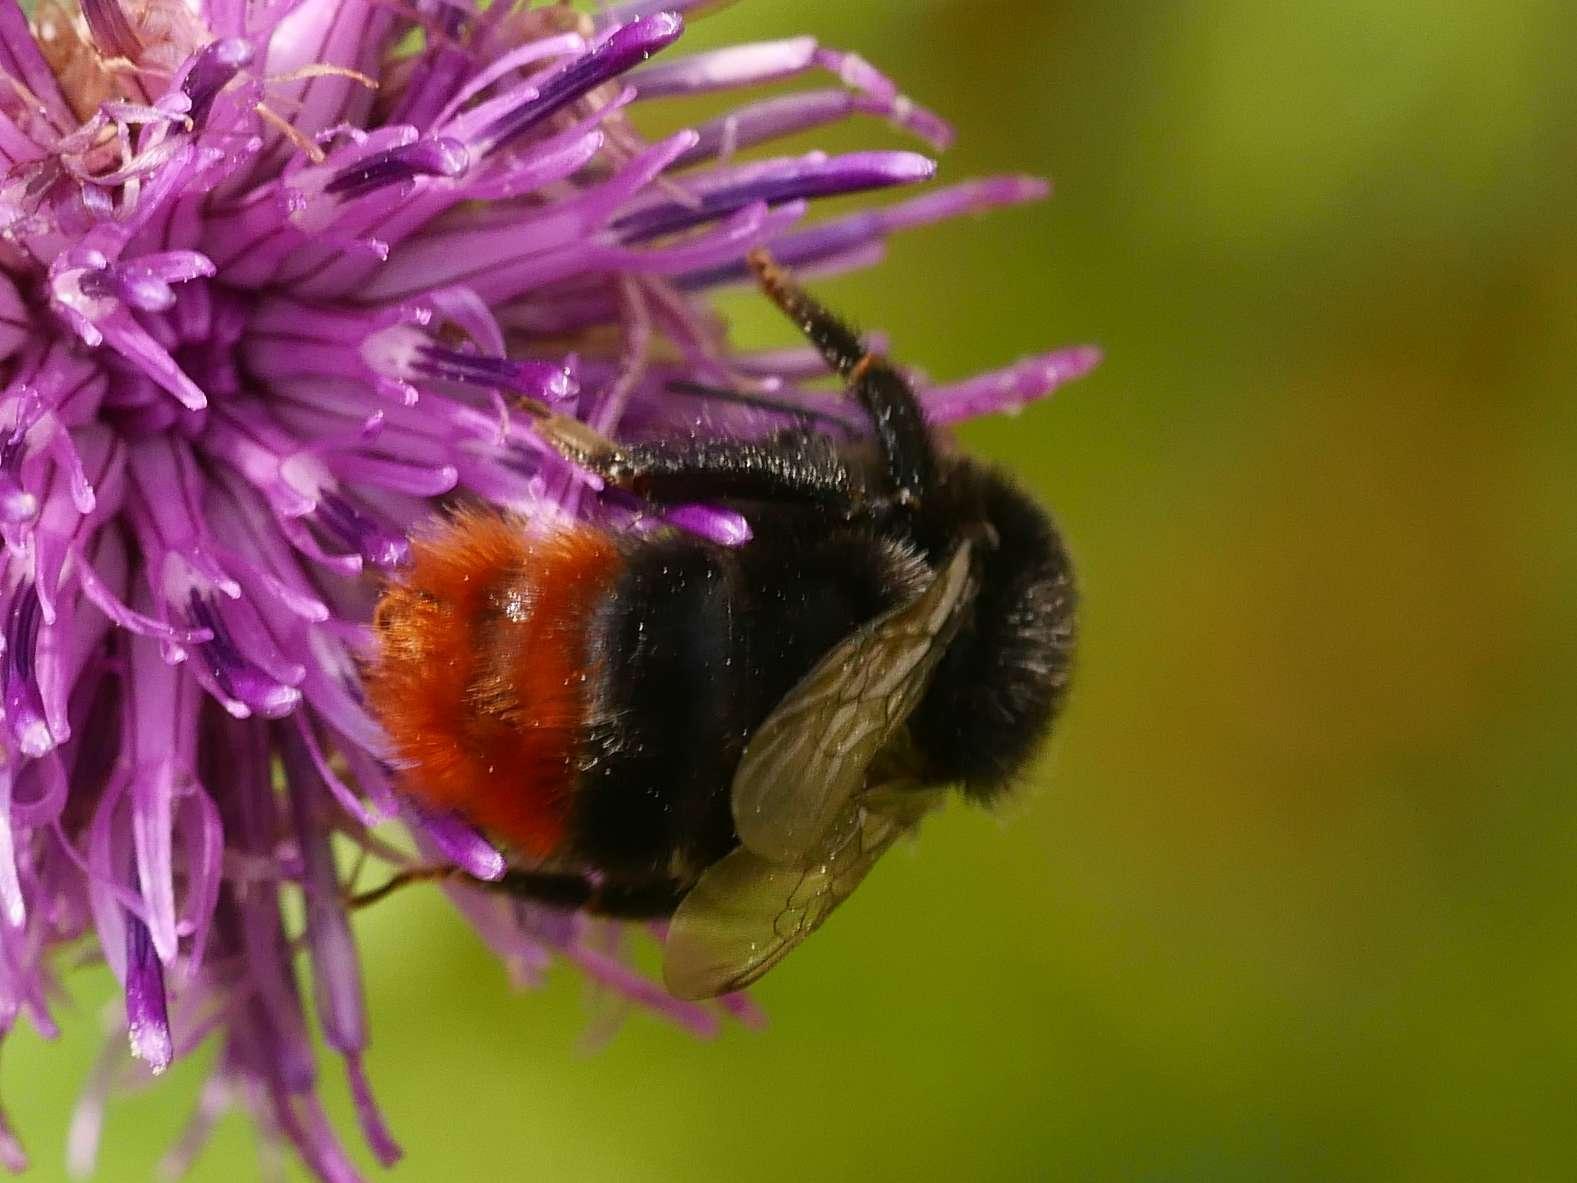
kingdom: Animalia
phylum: Arthropoda
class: Insecta
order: Hymenoptera
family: Apidae
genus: Bombus
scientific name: Bombus lapidarius
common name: Large red-tailed humble-bee
